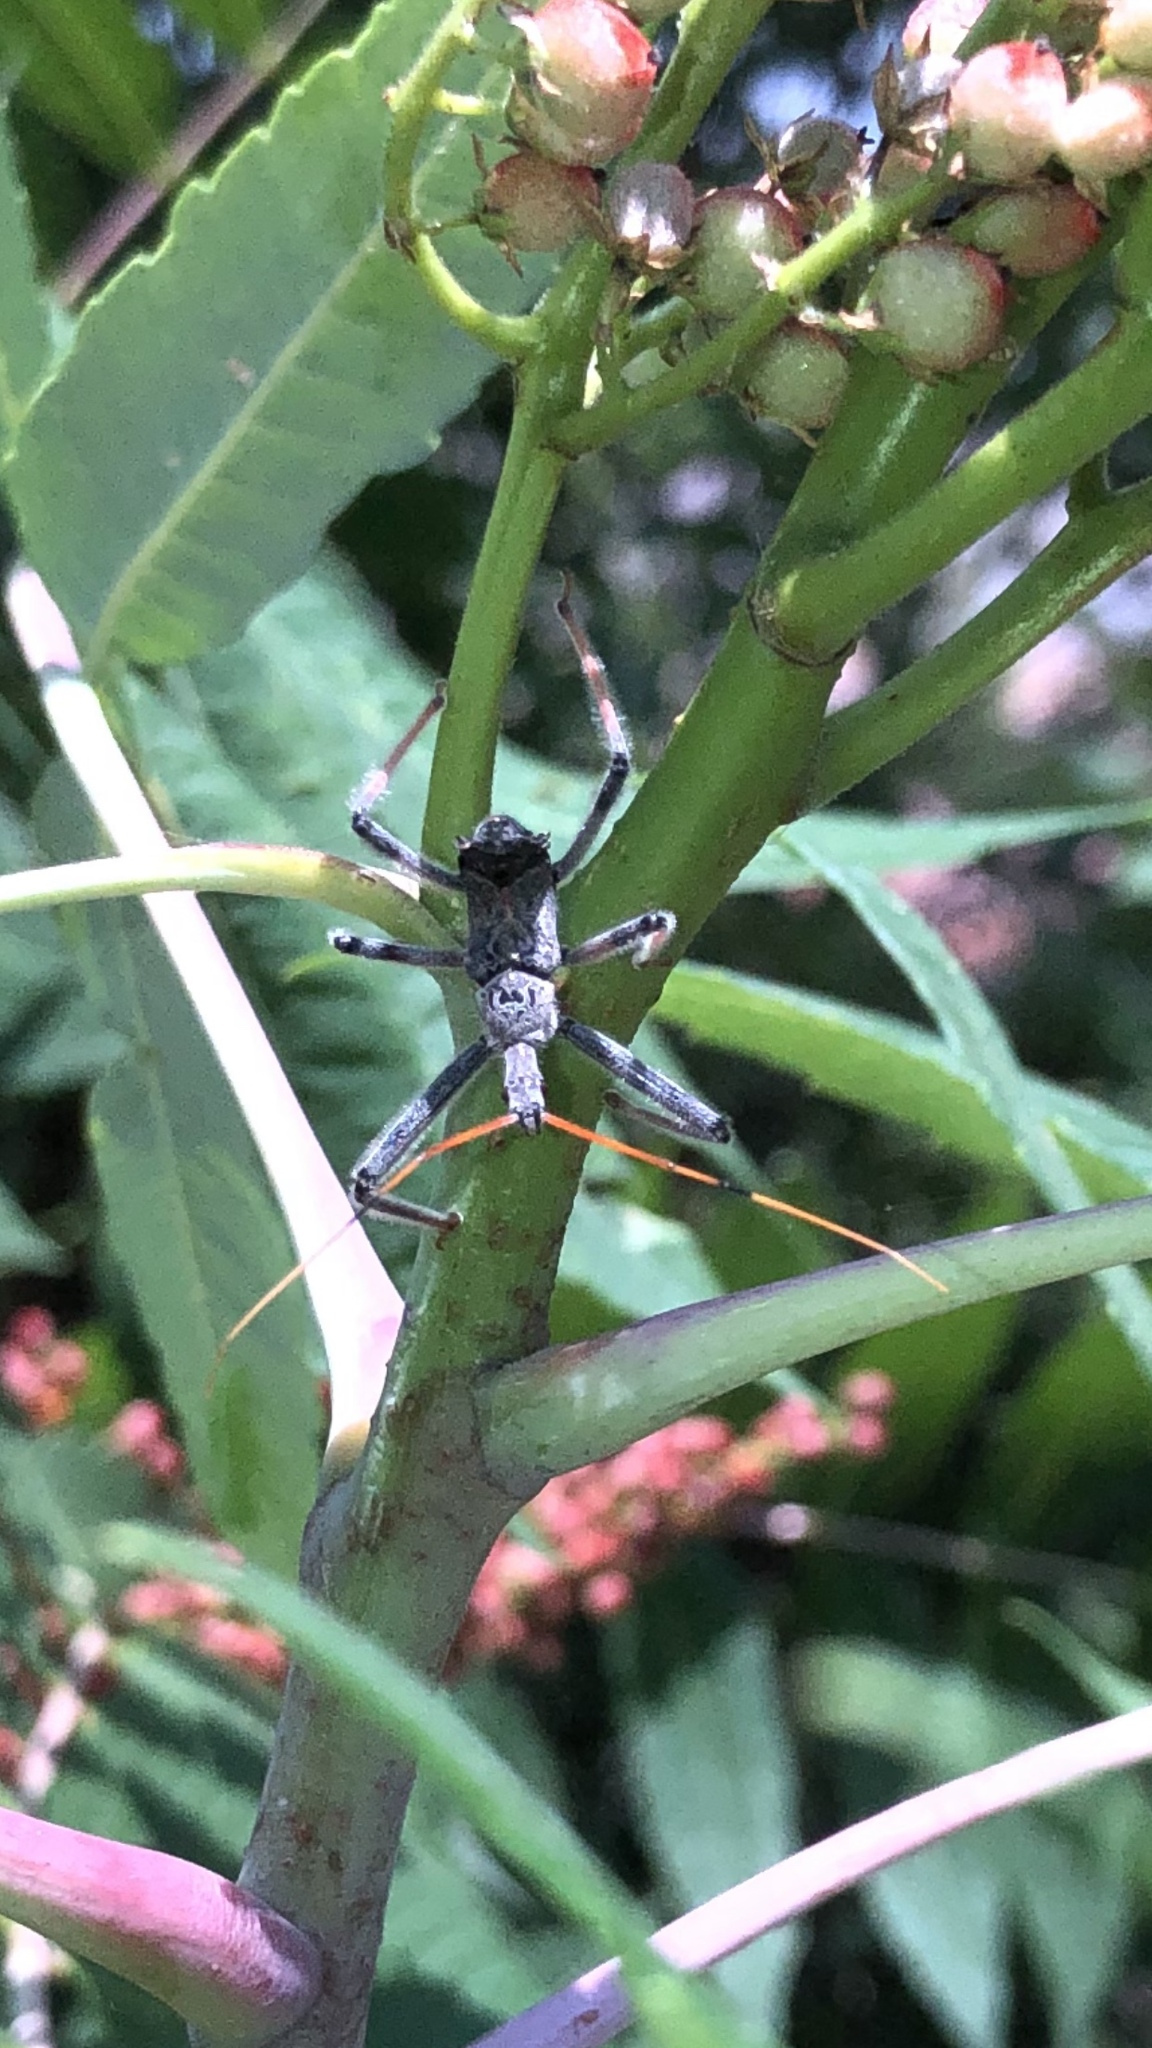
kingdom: Animalia
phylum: Arthropoda
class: Insecta
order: Hemiptera
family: Reduviidae
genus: Arilus
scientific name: Arilus cristatus
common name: North american wheel bug
